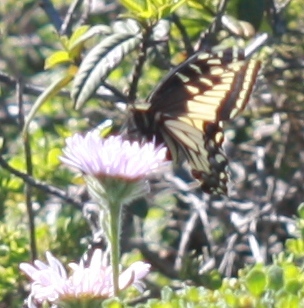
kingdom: Animalia
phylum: Arthropoda
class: Insecta
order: Lepidoptera
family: Papilionidae
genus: Papilio
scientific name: Papilio zelicaon
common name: Anise swallowtail
